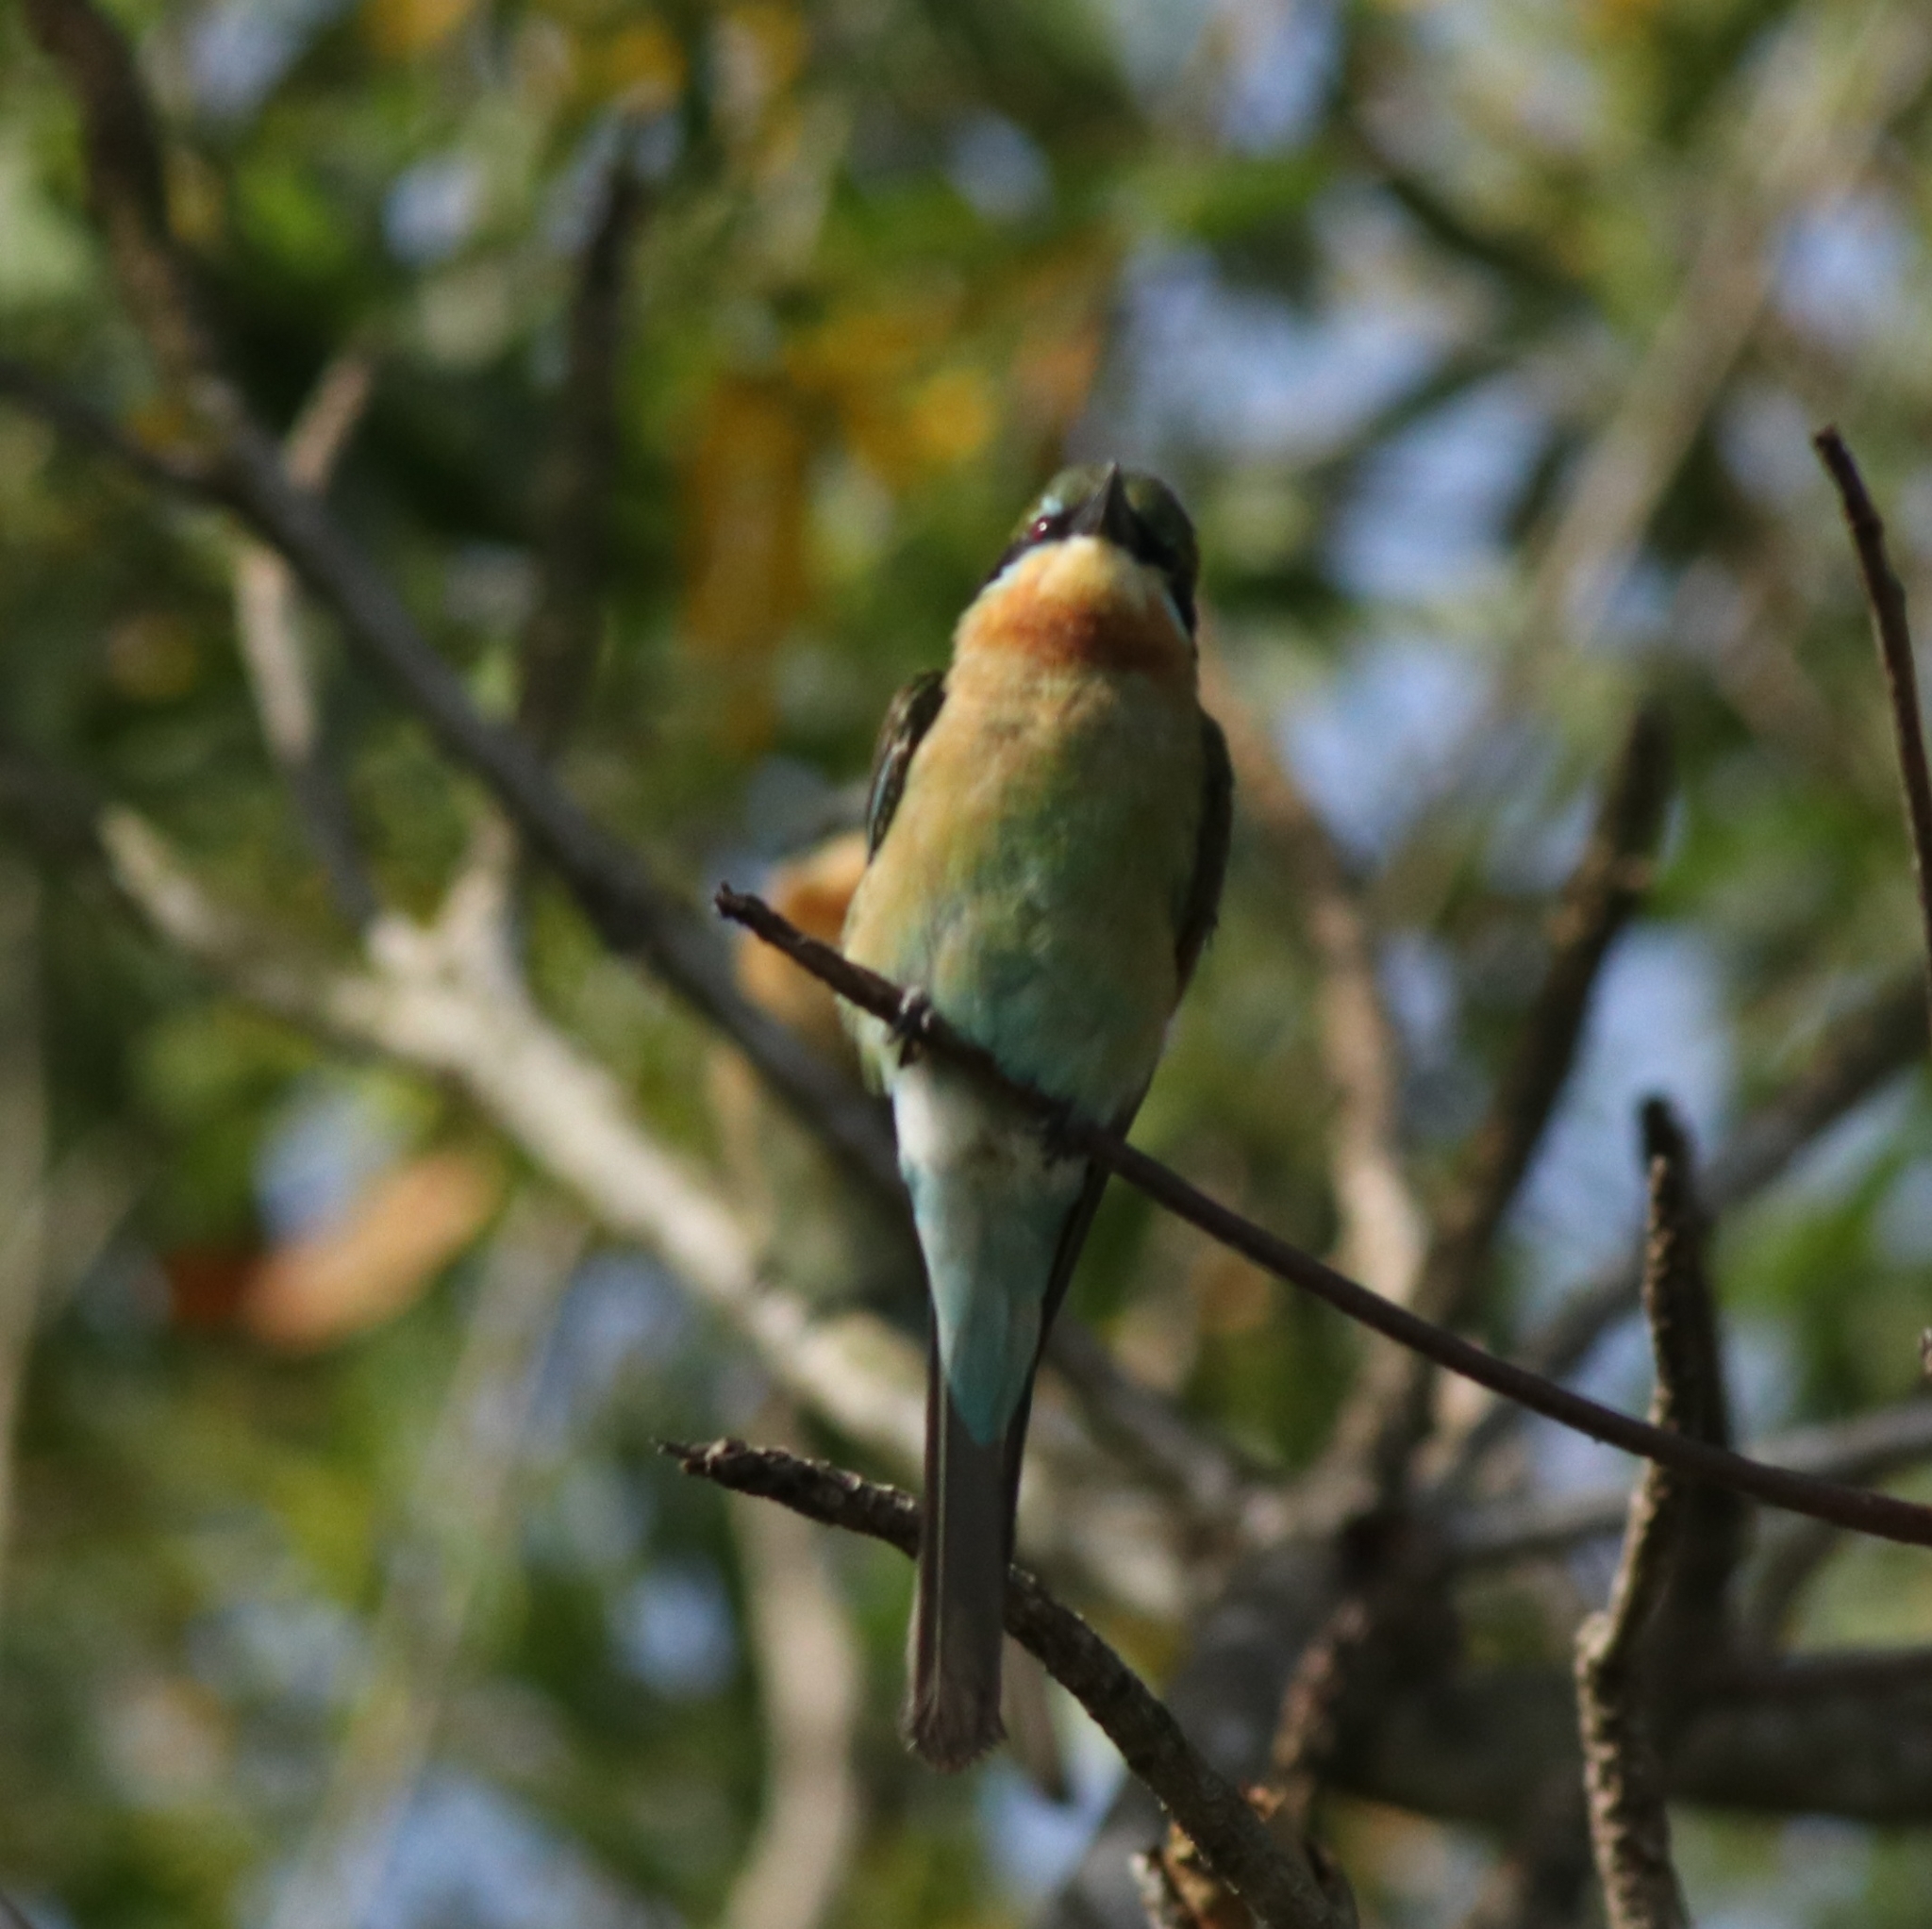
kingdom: Animalia
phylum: Chordata
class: Aves
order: Coraciiformes
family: Meropidae
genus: Merops
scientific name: Merops philippinus
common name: Blue-tailed bee-eater
